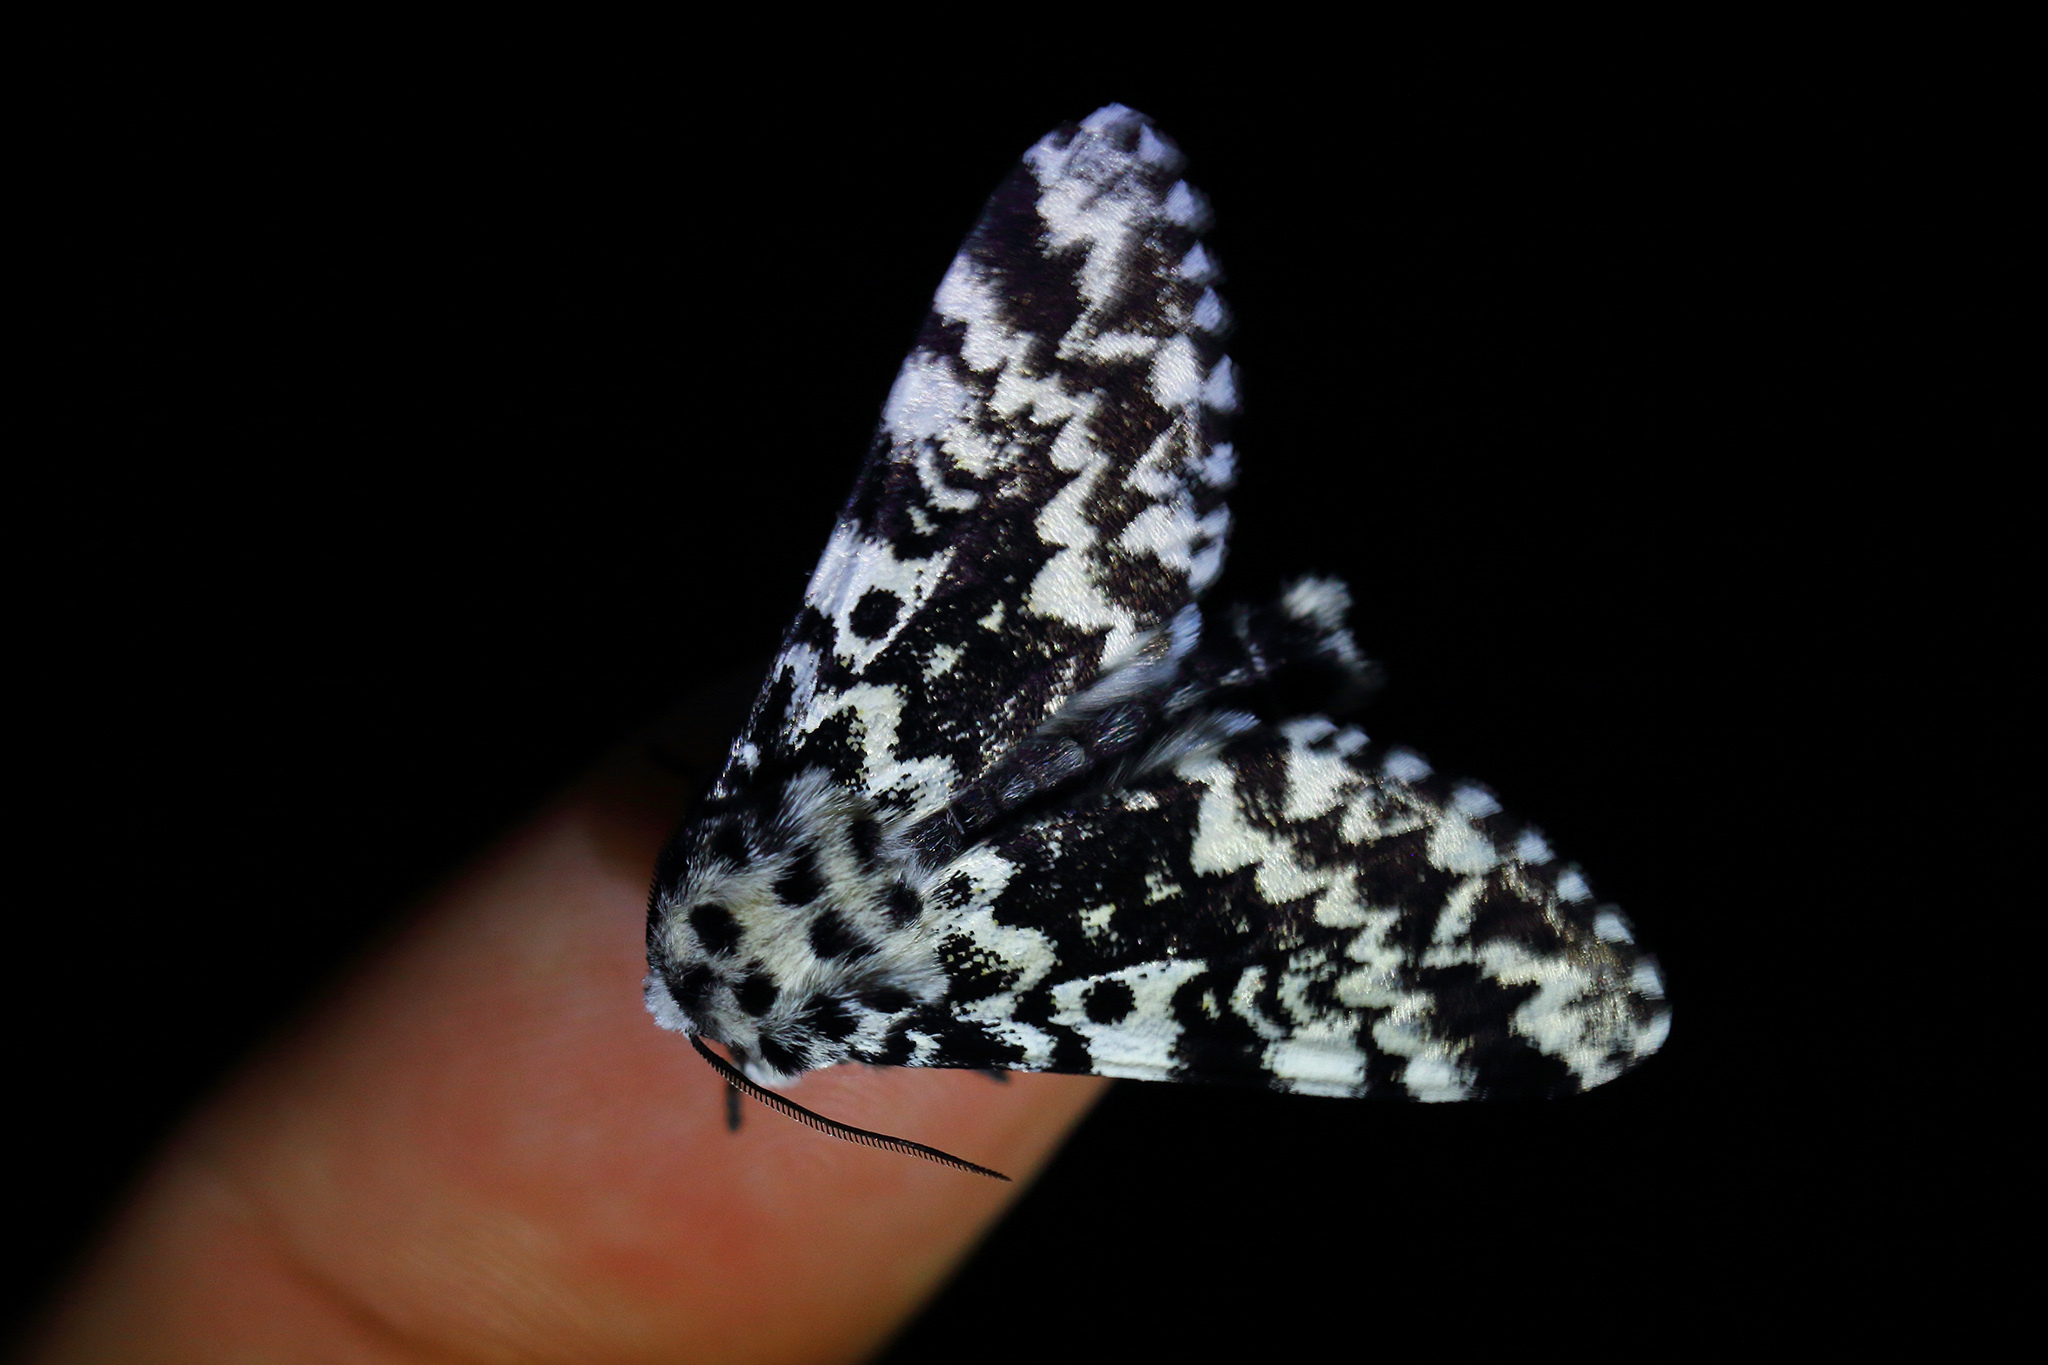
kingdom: Animalia
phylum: Arthropoda
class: Insecta
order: Lepidoptera
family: Noctuidae
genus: Panthea
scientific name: Panthea coenobita
